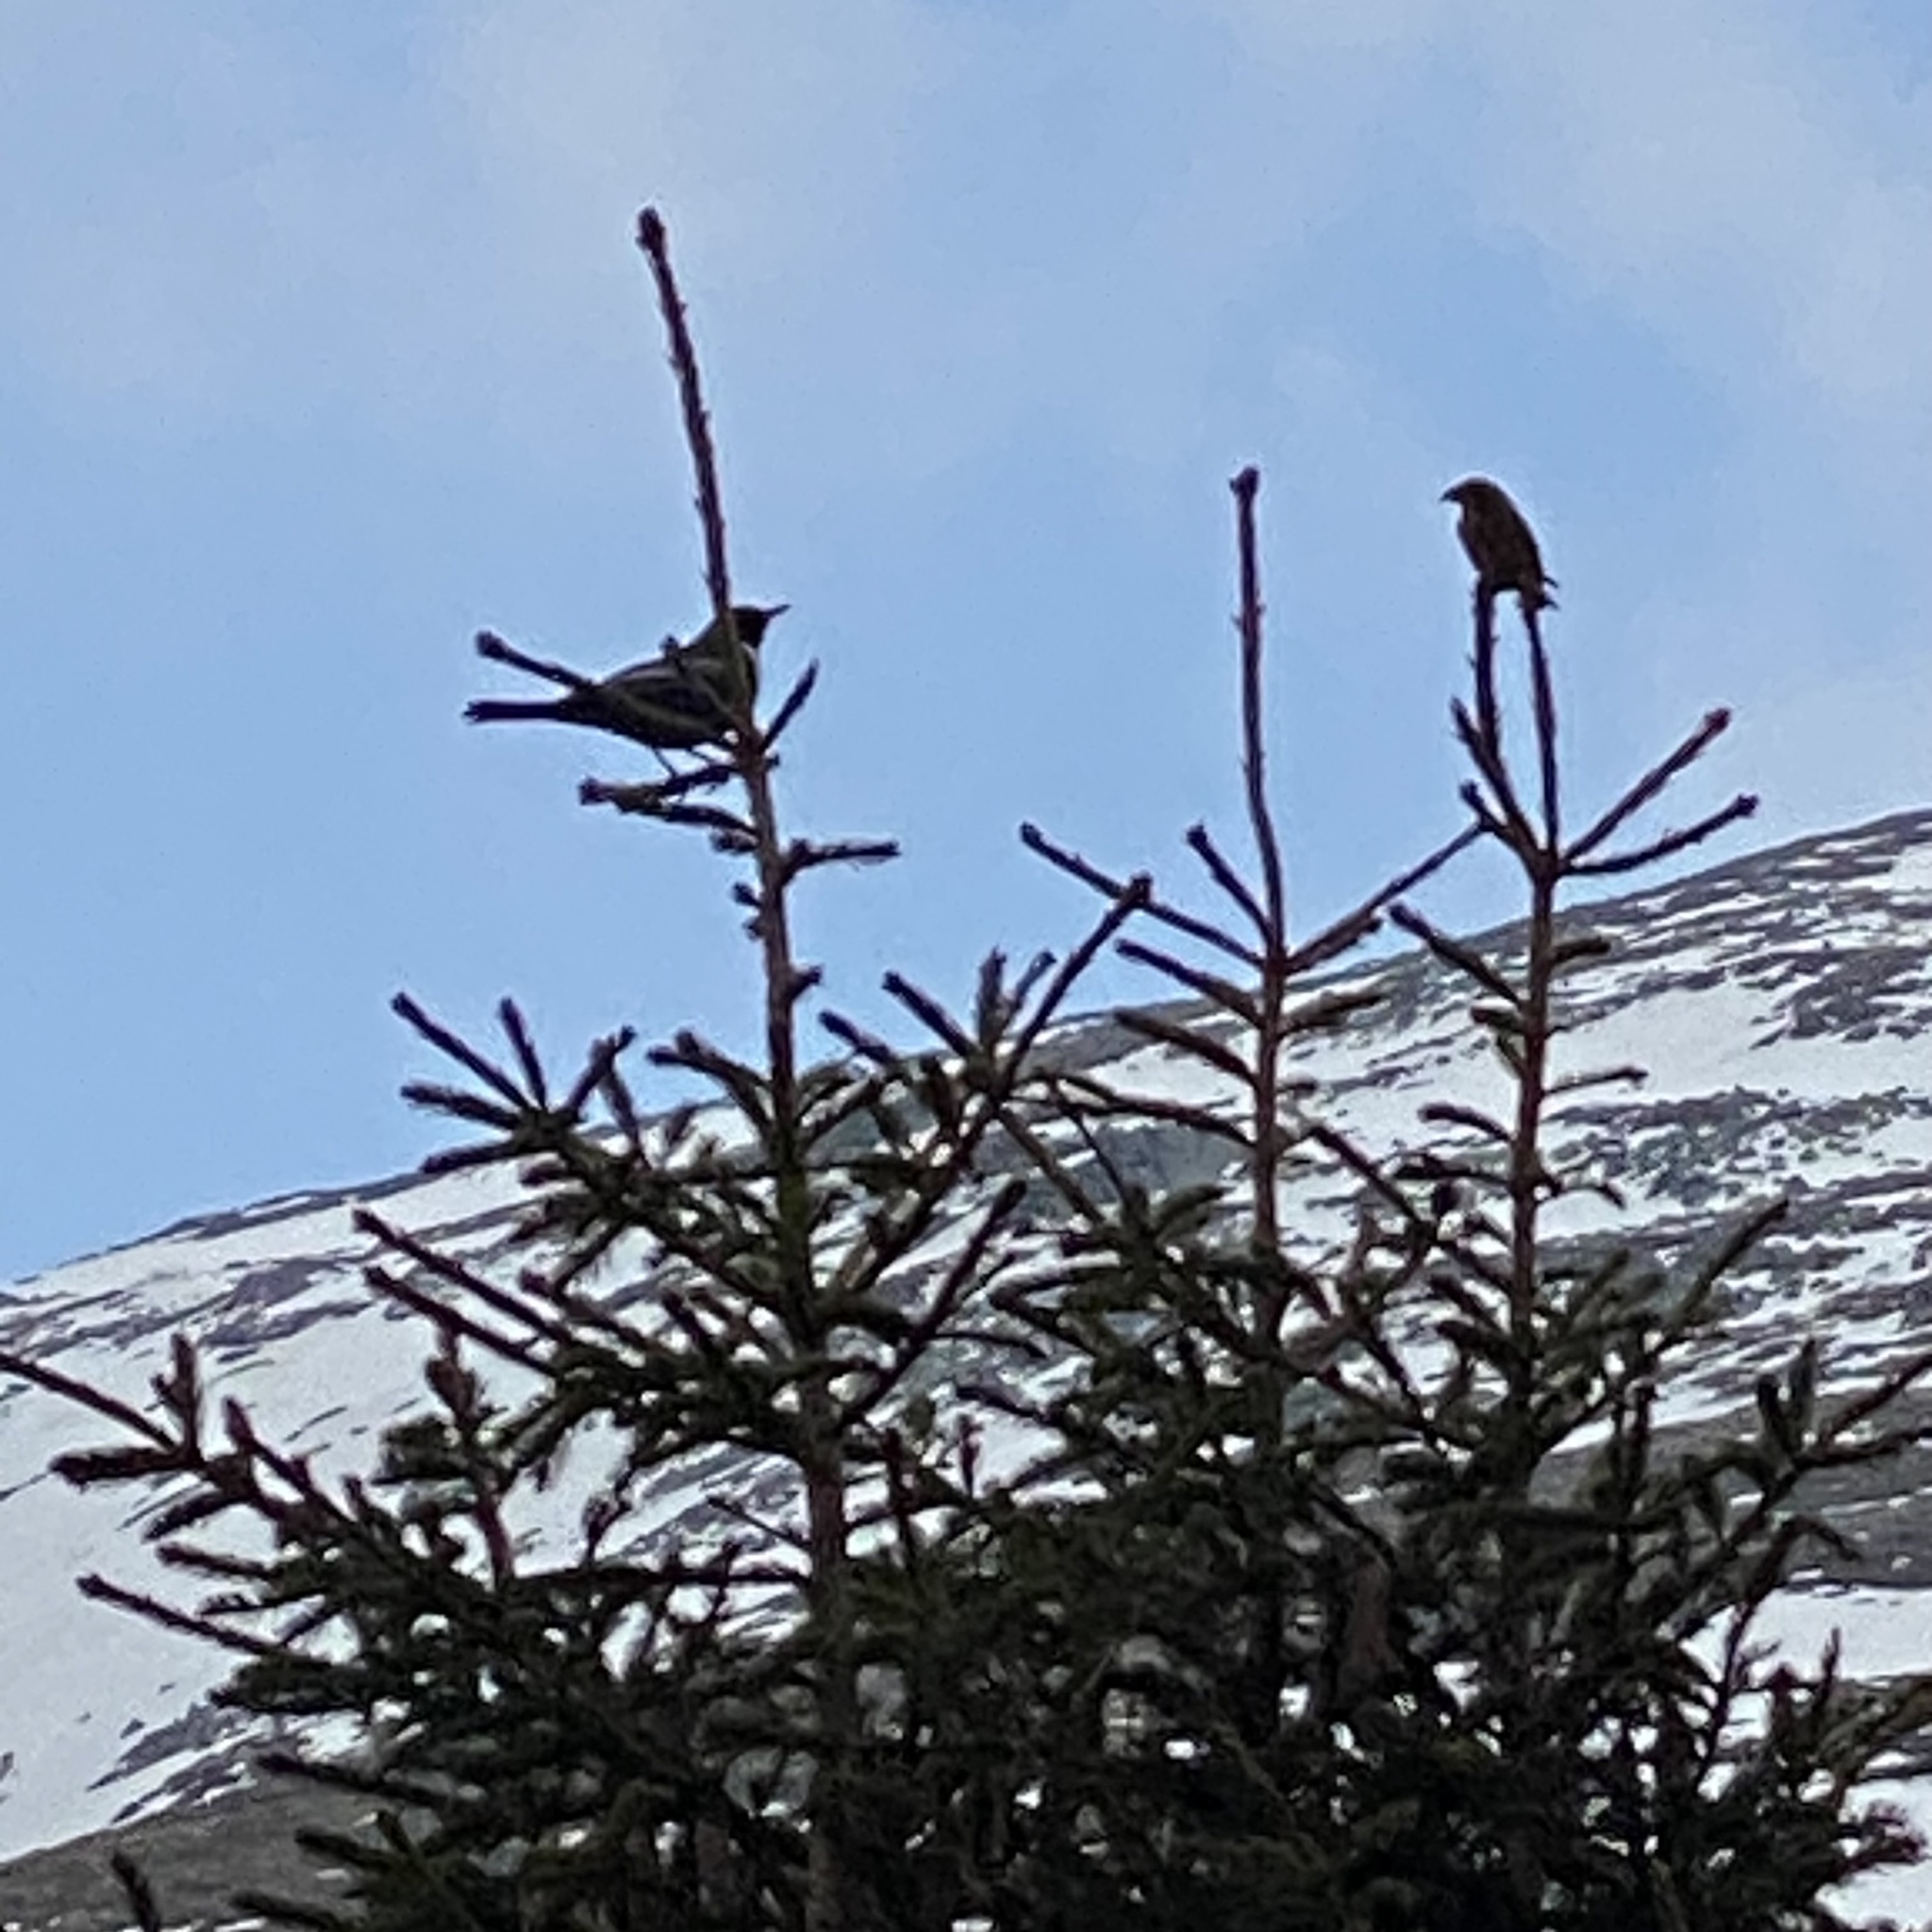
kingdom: Animalia
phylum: Chordata
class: Aves
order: Passeriformes
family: Turdidae
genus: Turdus
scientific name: Turdus torquatus
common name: Ring ouzel
